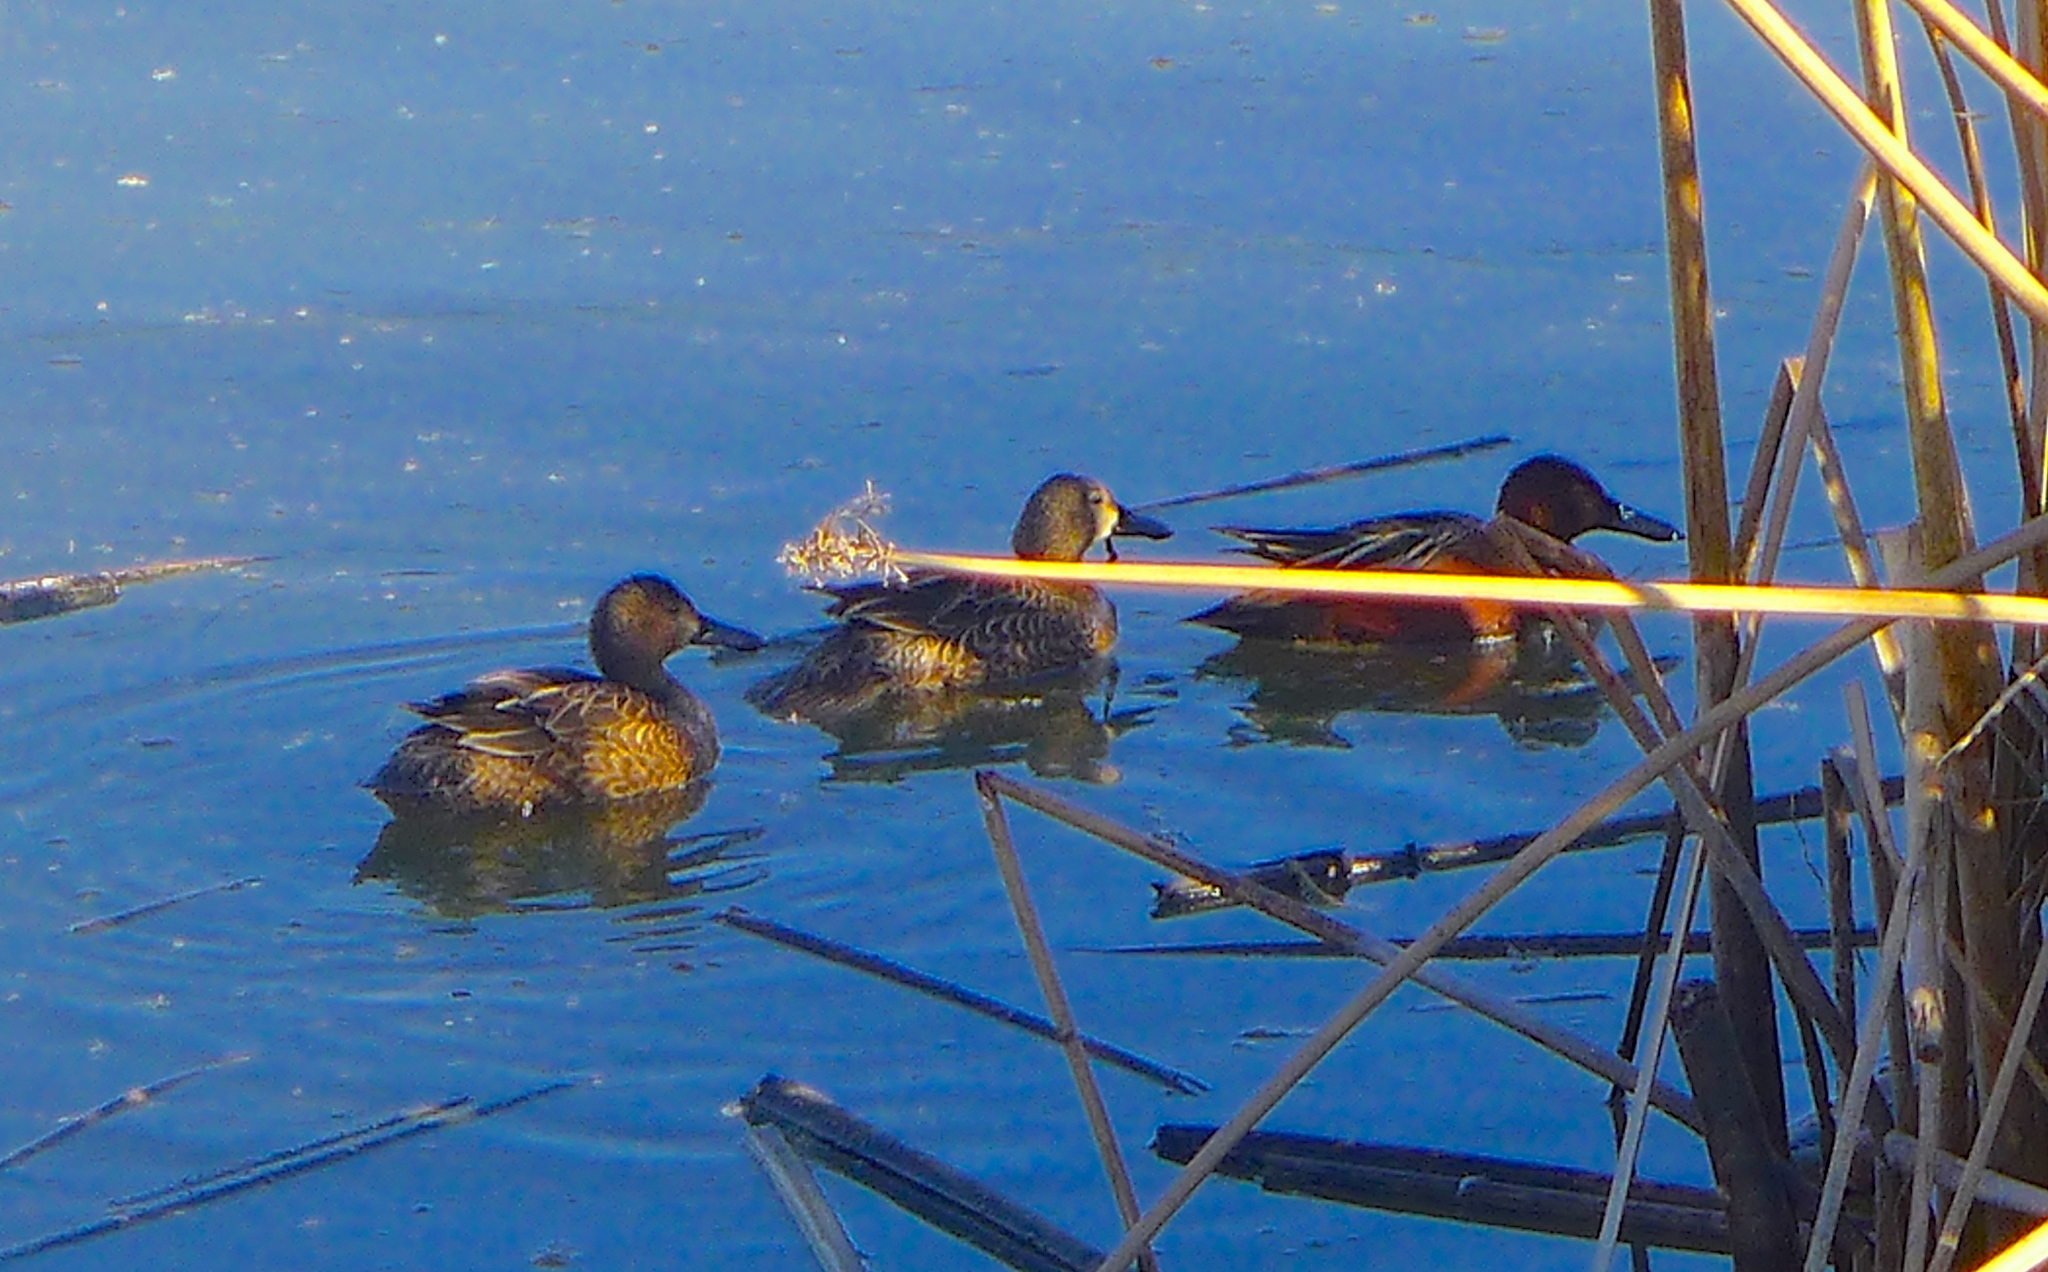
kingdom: Animalia
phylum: Chordata
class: Aves
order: Anseriformes
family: Anatidae
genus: Spatula
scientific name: Spatula cyanoptera
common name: Cinnamon teal
